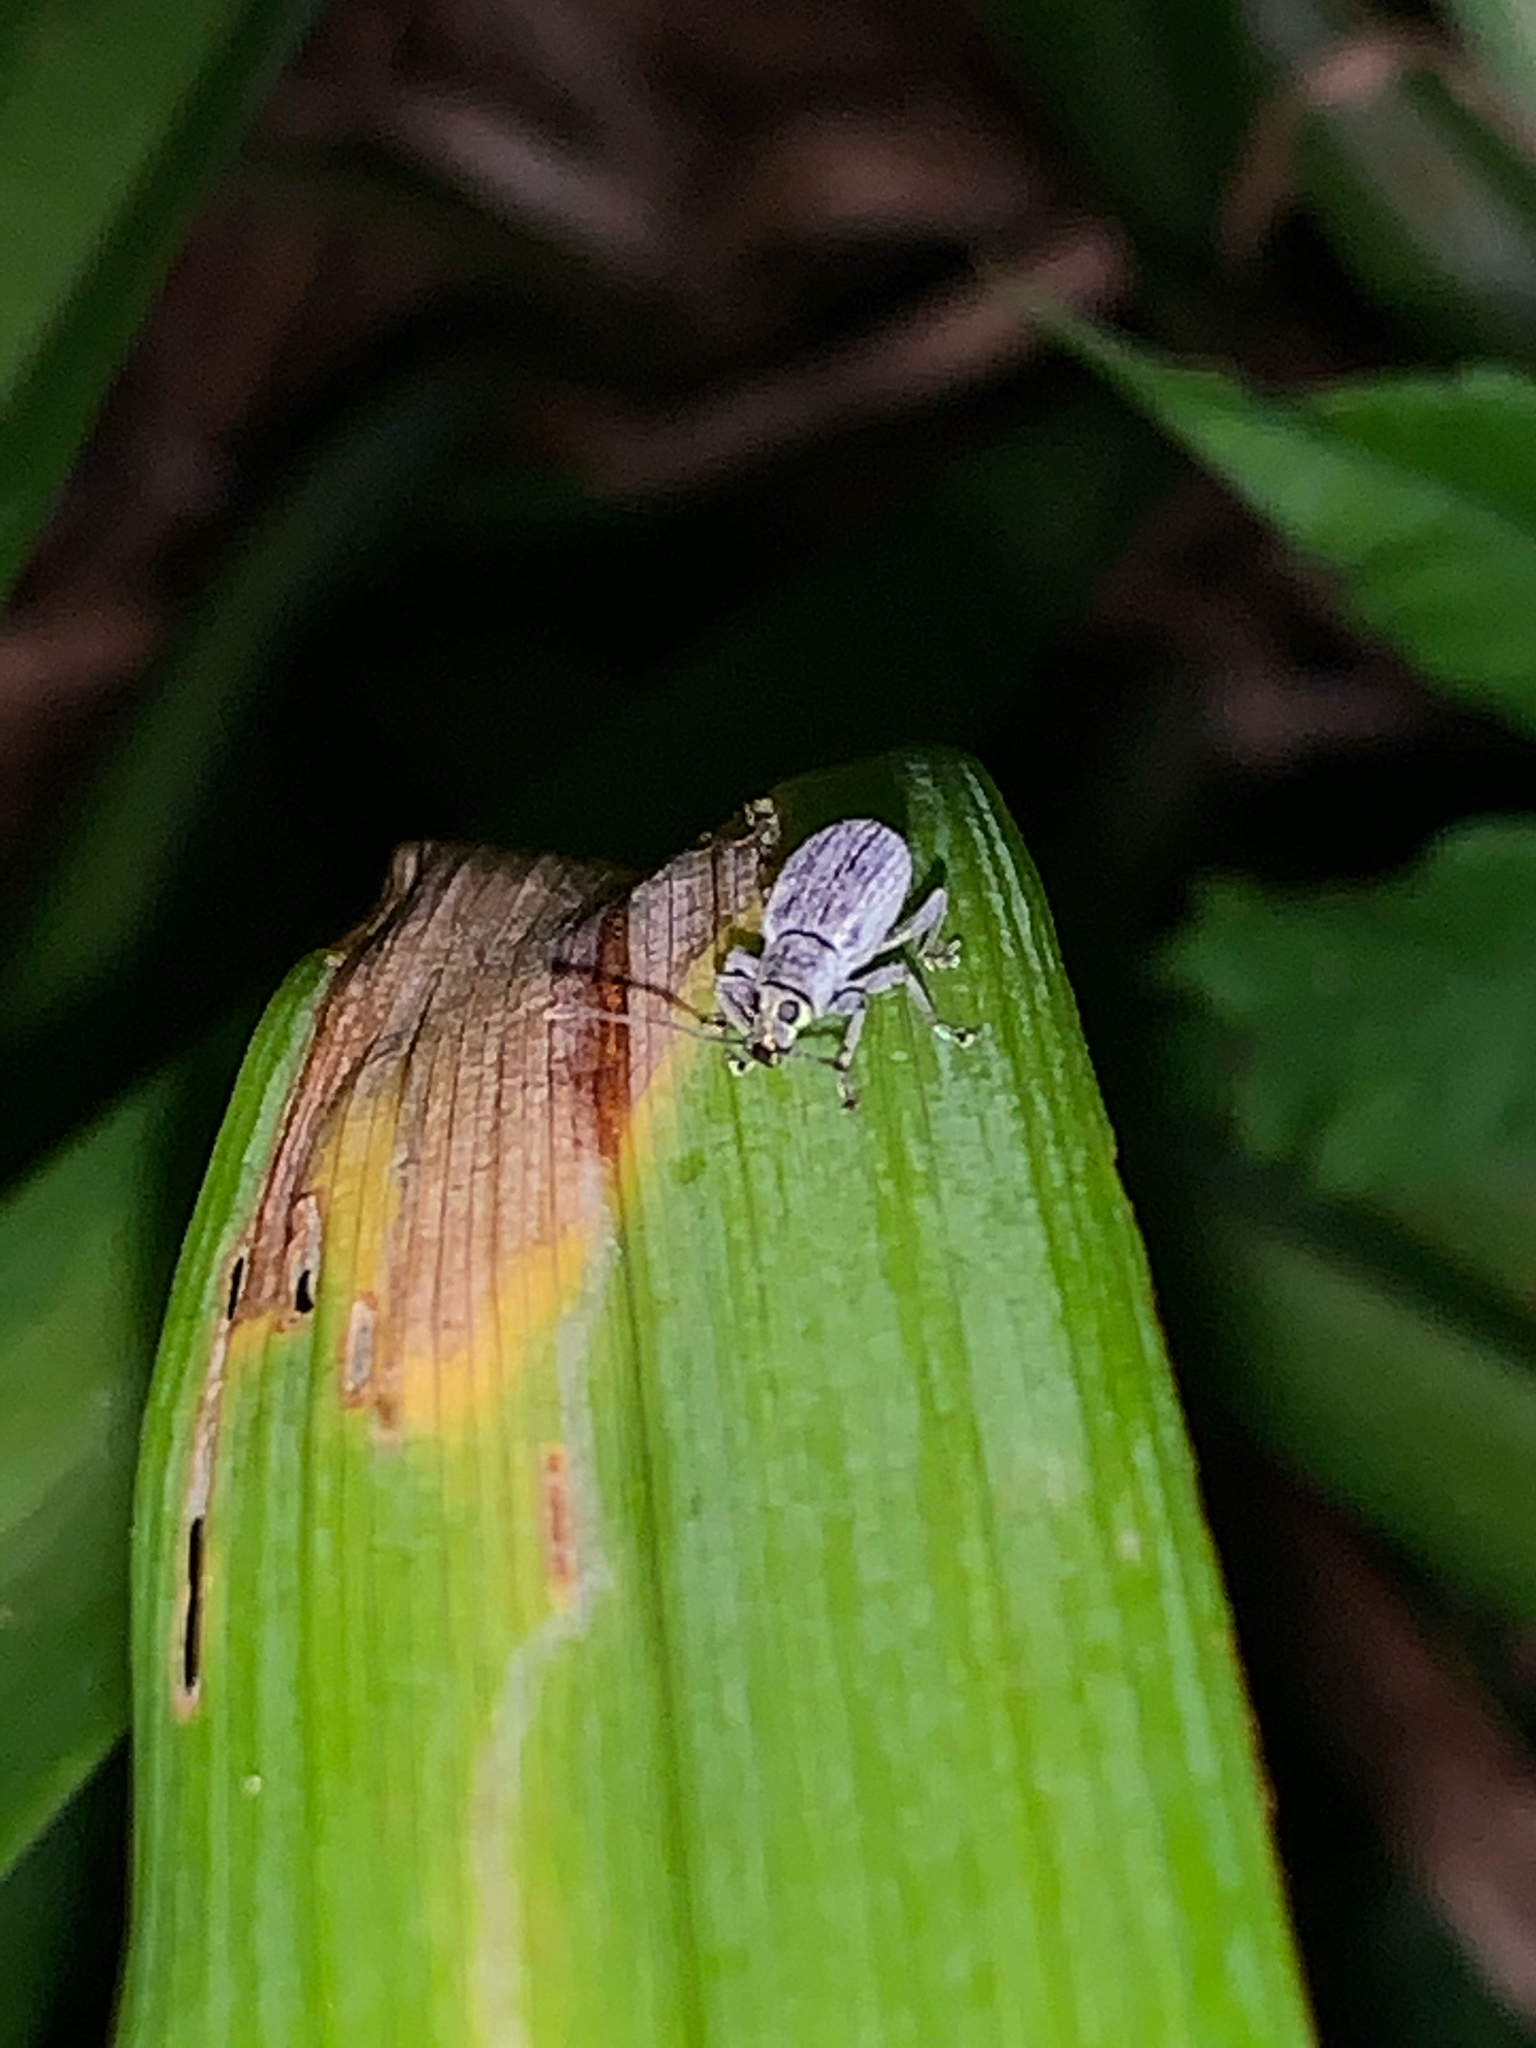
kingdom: Animalia
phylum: Arthropoda
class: Insecta
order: Coleoptera
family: Curculionidae
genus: Cyrtepistomus
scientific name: Cyrtepistomus castaneus
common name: Weevil
